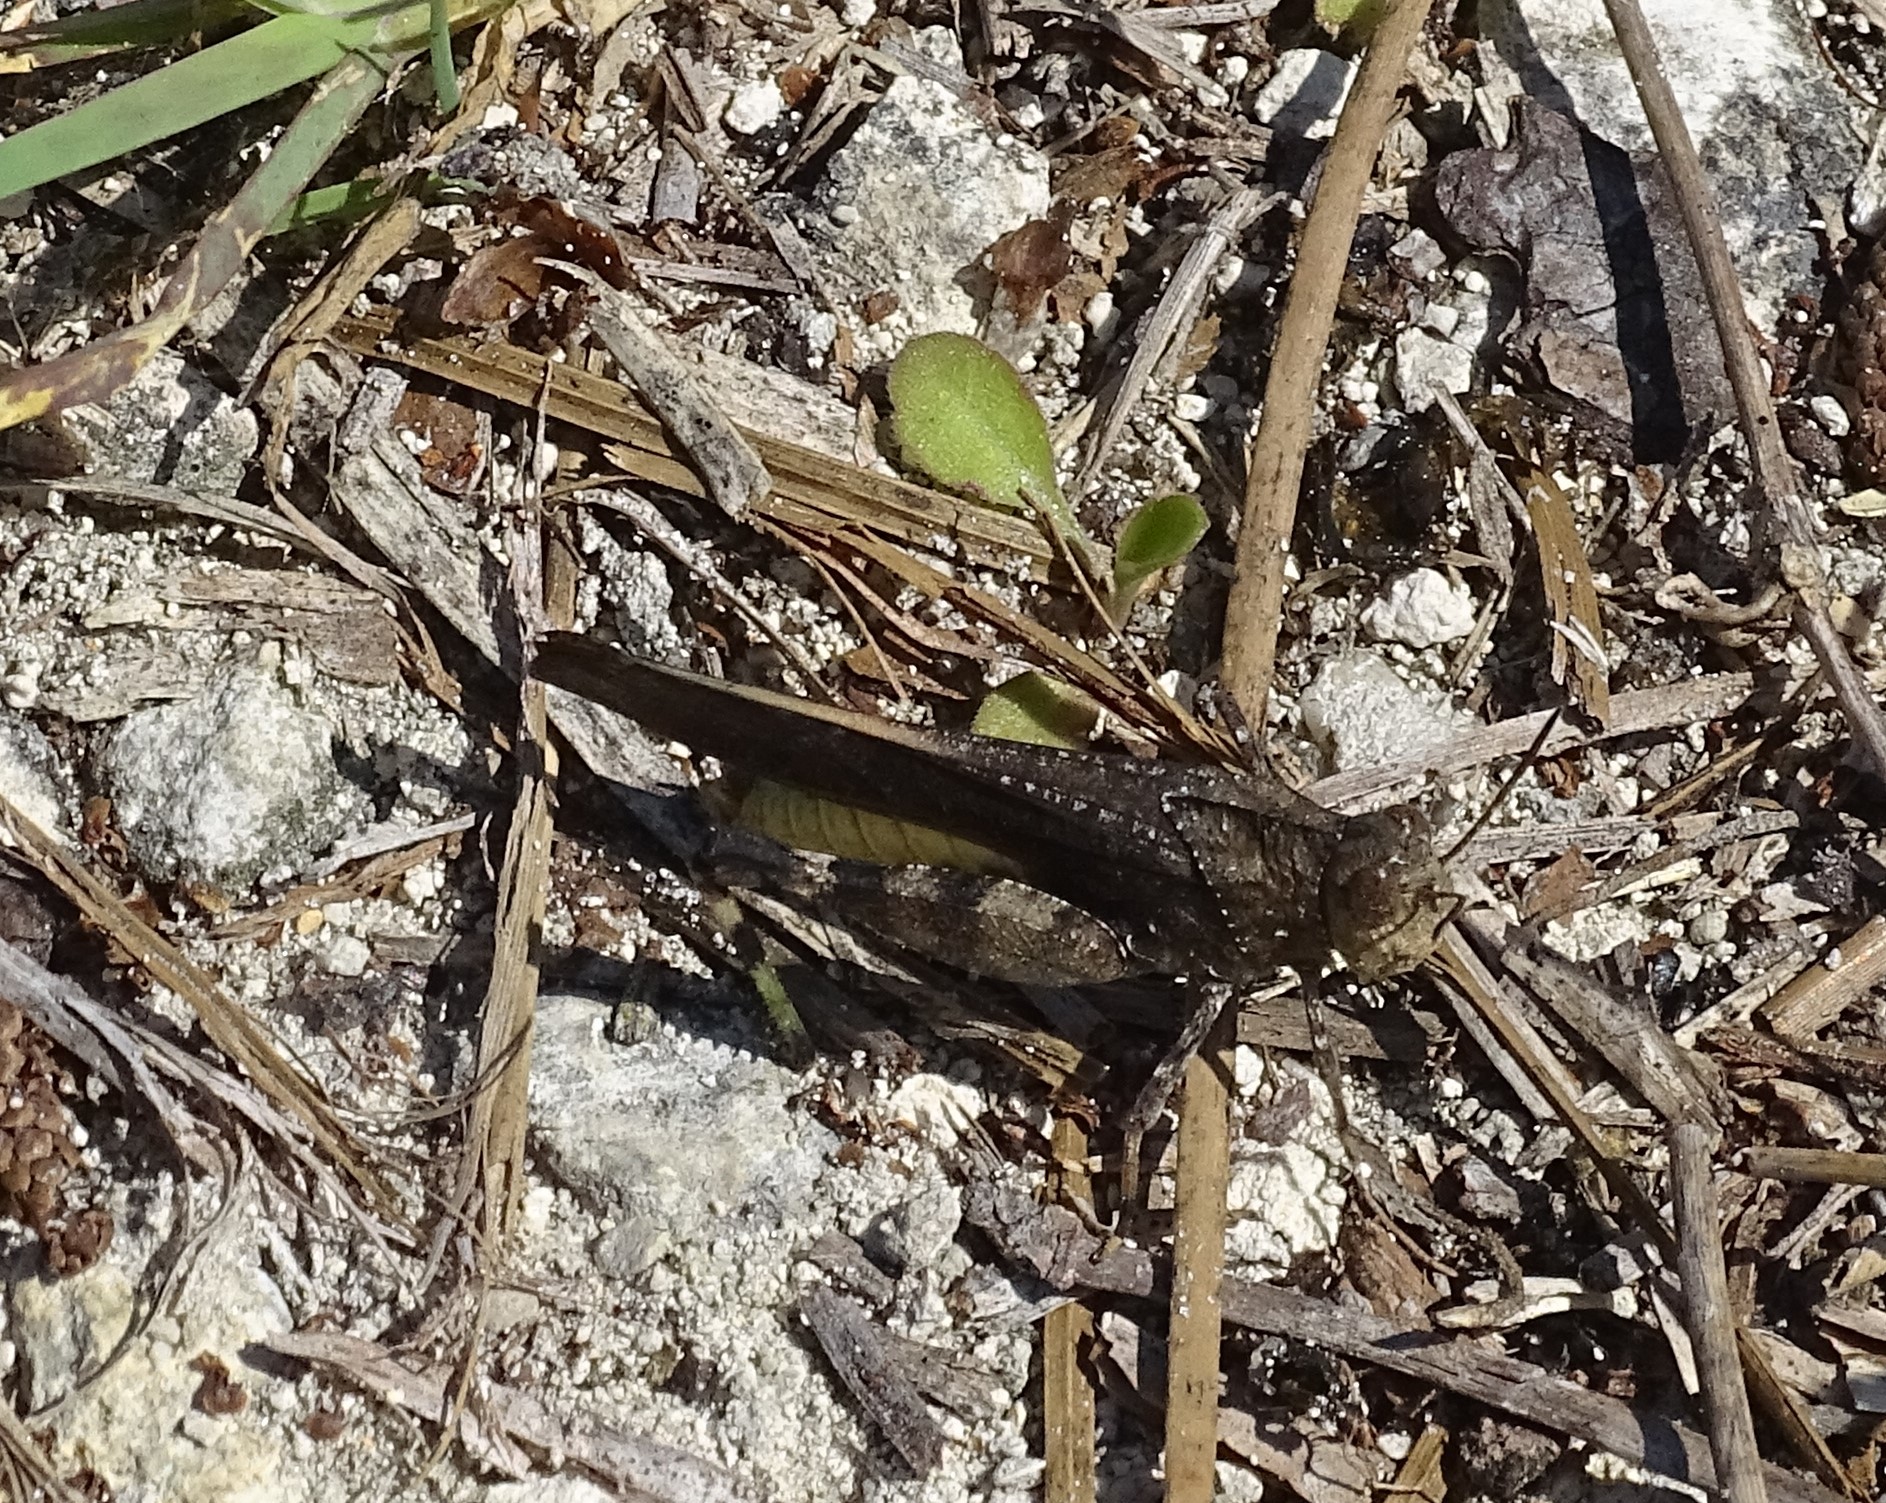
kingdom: Animalia
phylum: Arthropoda
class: Insecta
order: Orthoptera
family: Acrididae
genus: Arphia
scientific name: Arphia granulata
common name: Southern yellow-winged grasshopper
